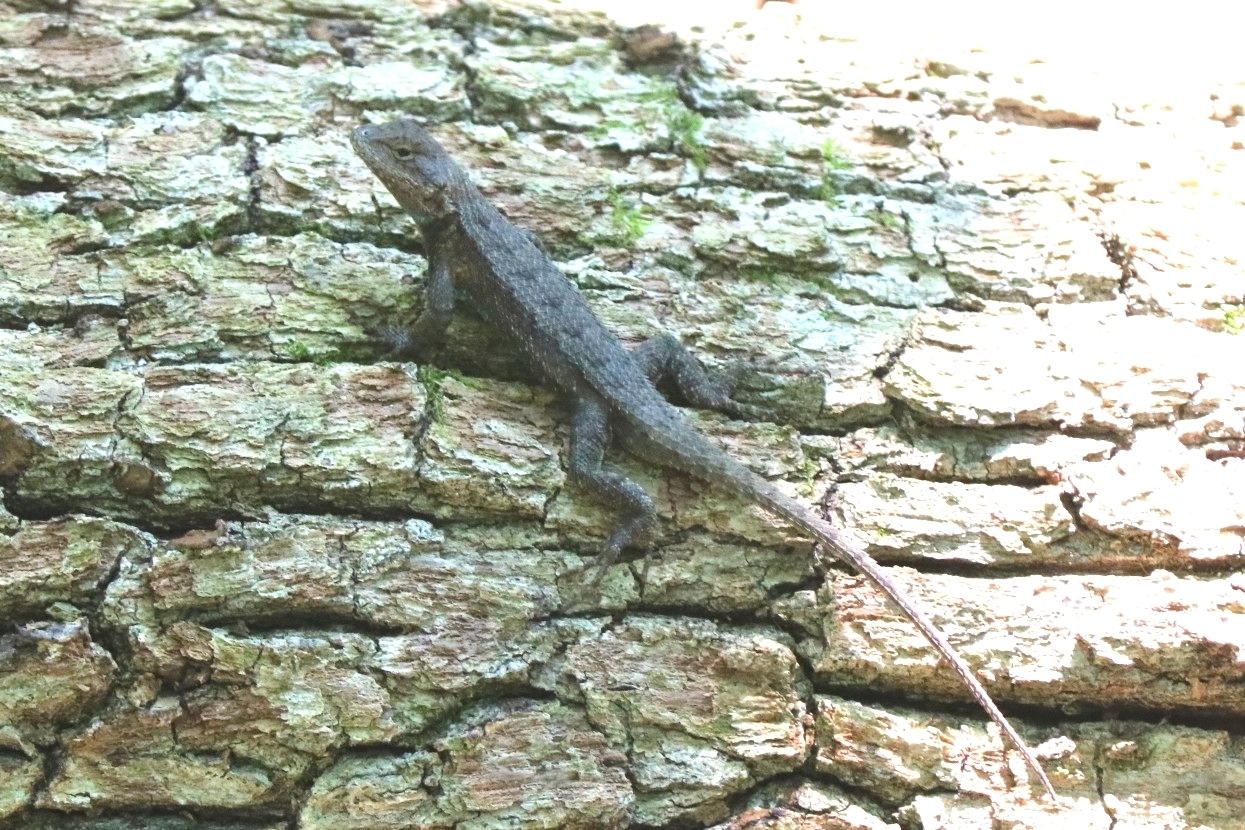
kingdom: Animalia
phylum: Chordata
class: Squamata
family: Phrynosomatidae
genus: Sceloporus
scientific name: Sceloporus consobrinus
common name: Southern prairie lizard
